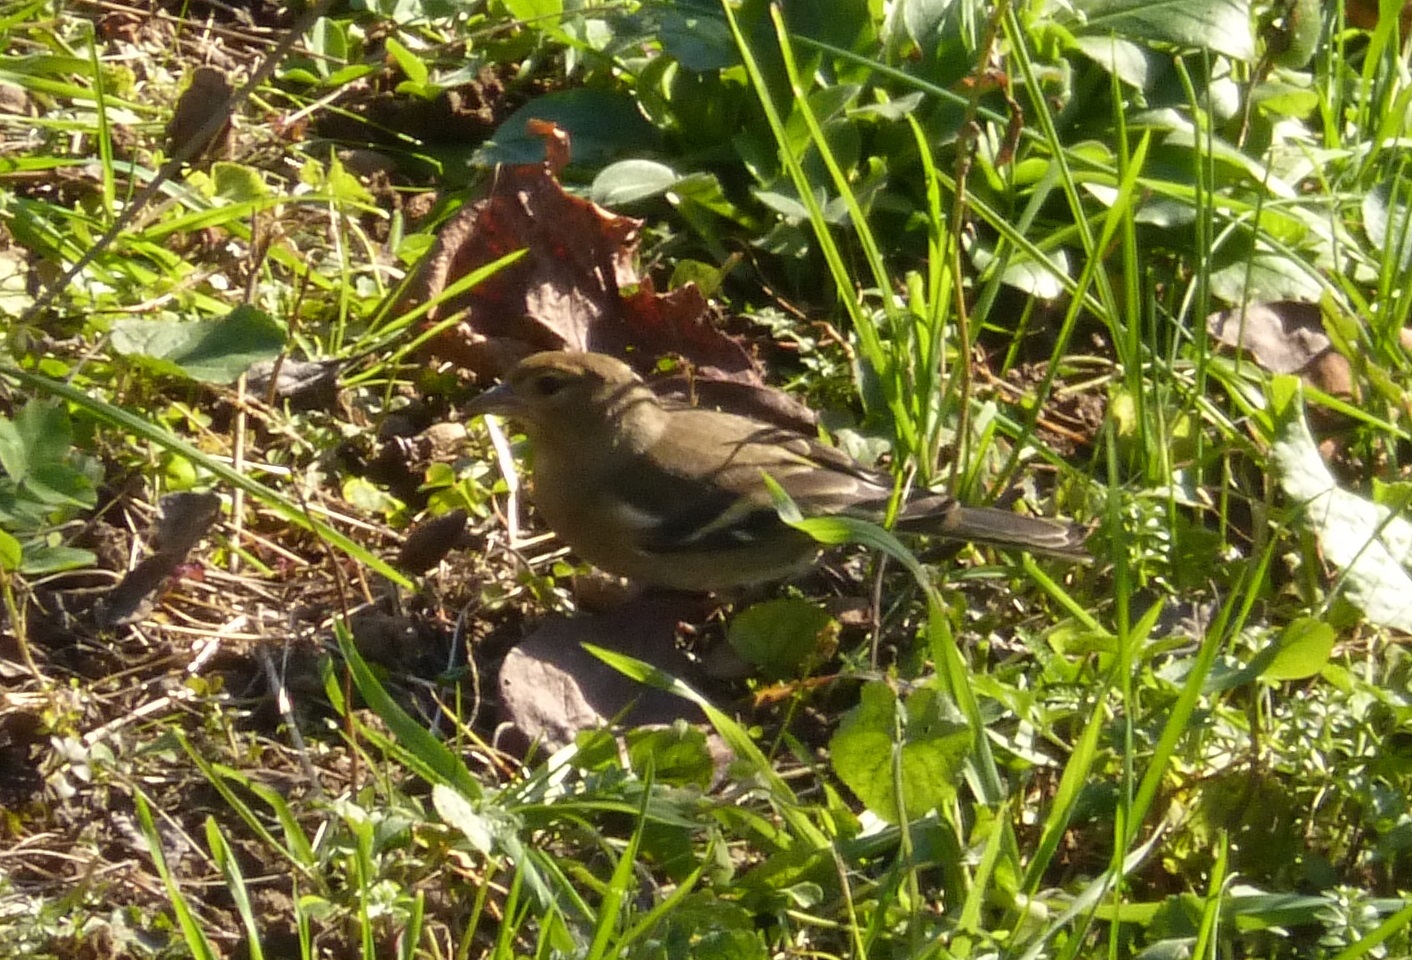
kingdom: Animalia
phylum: Chordata
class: Aves
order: Passeriformes
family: Fringillidae
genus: Fringilla
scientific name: Fringilla coelebs
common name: Common chaffinch
